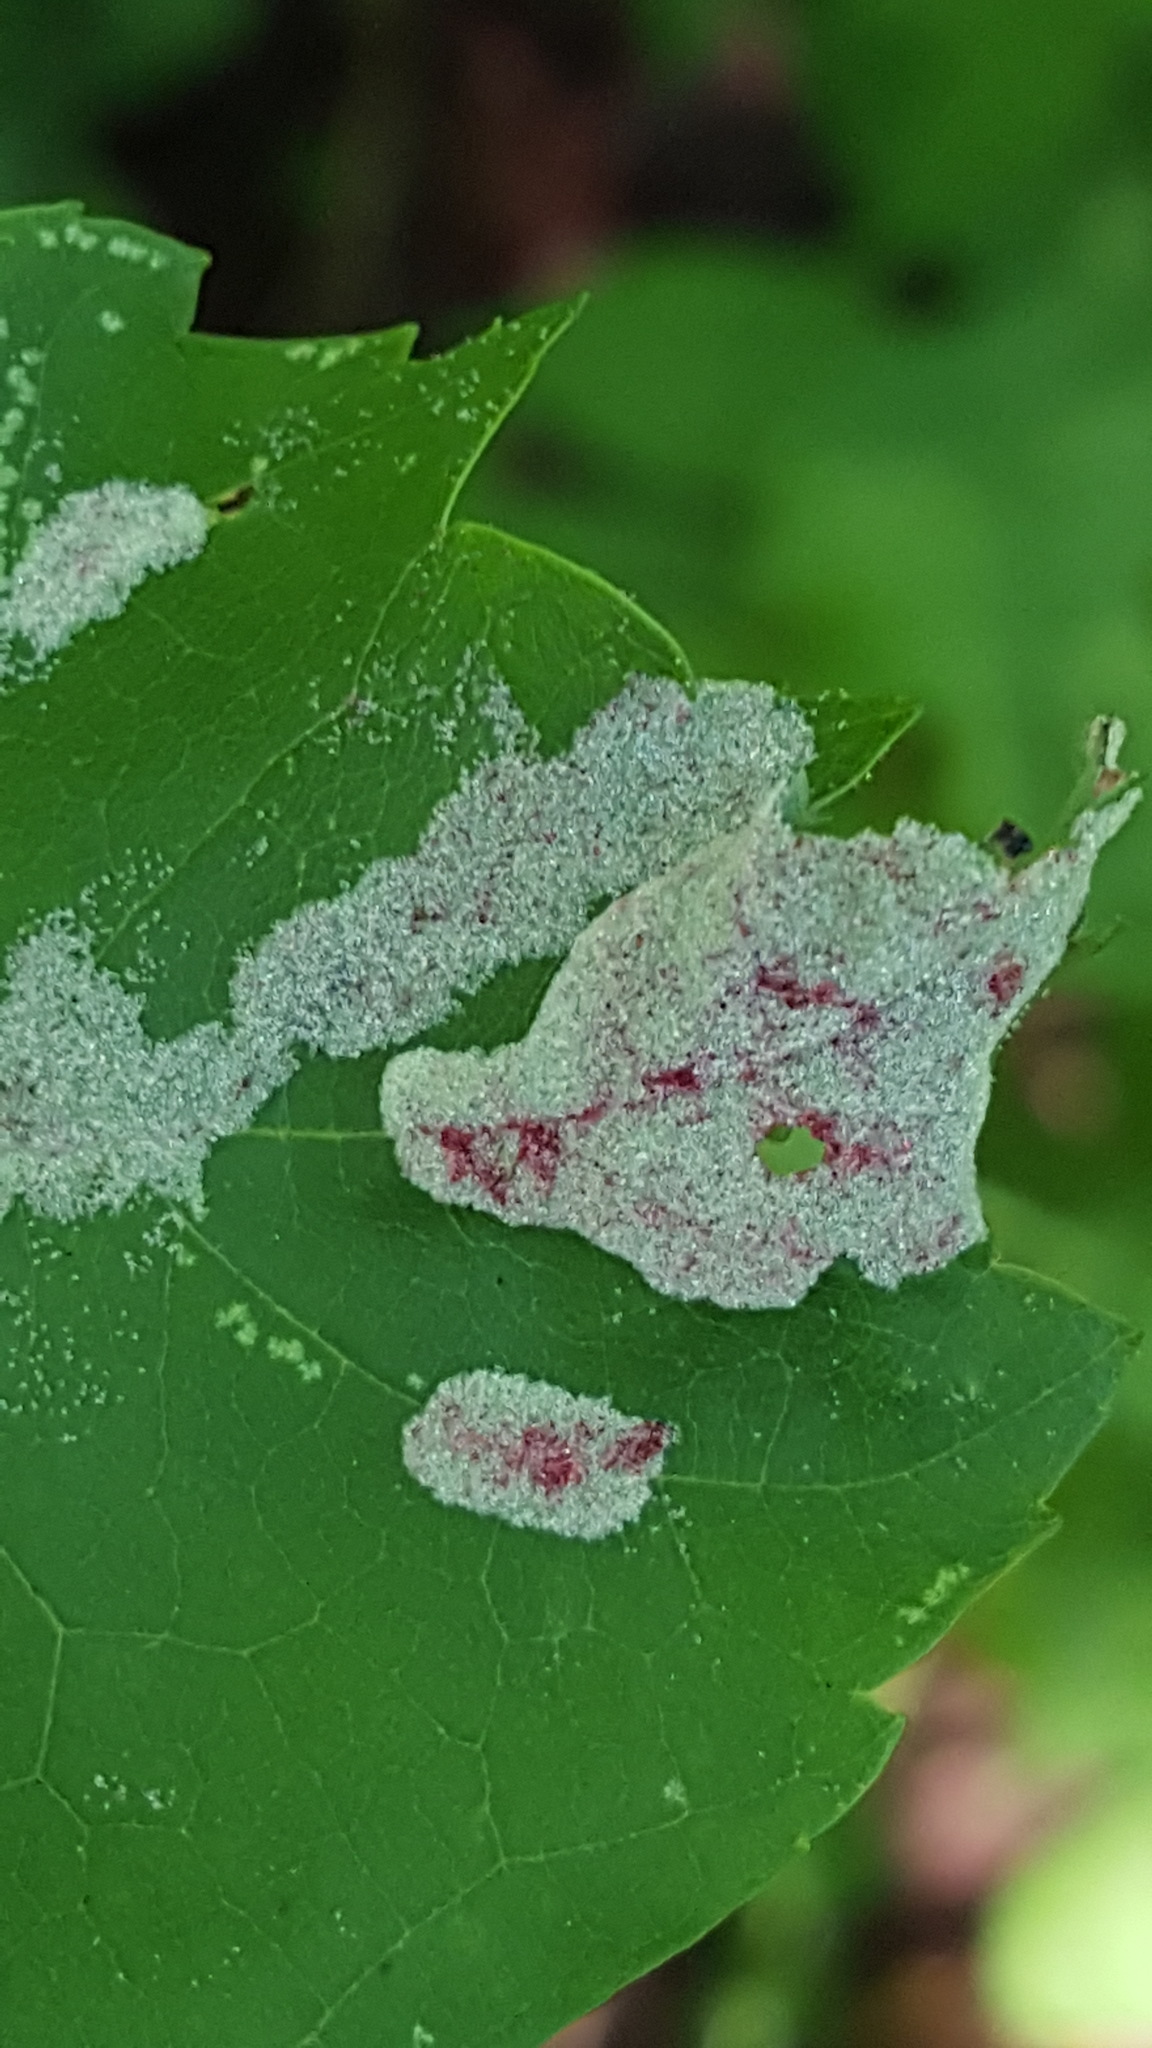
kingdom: Animalia
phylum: Arthropoda
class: Arachnida
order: Trombidiformes
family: Eriophyidae
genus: Aculus
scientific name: Aculus
